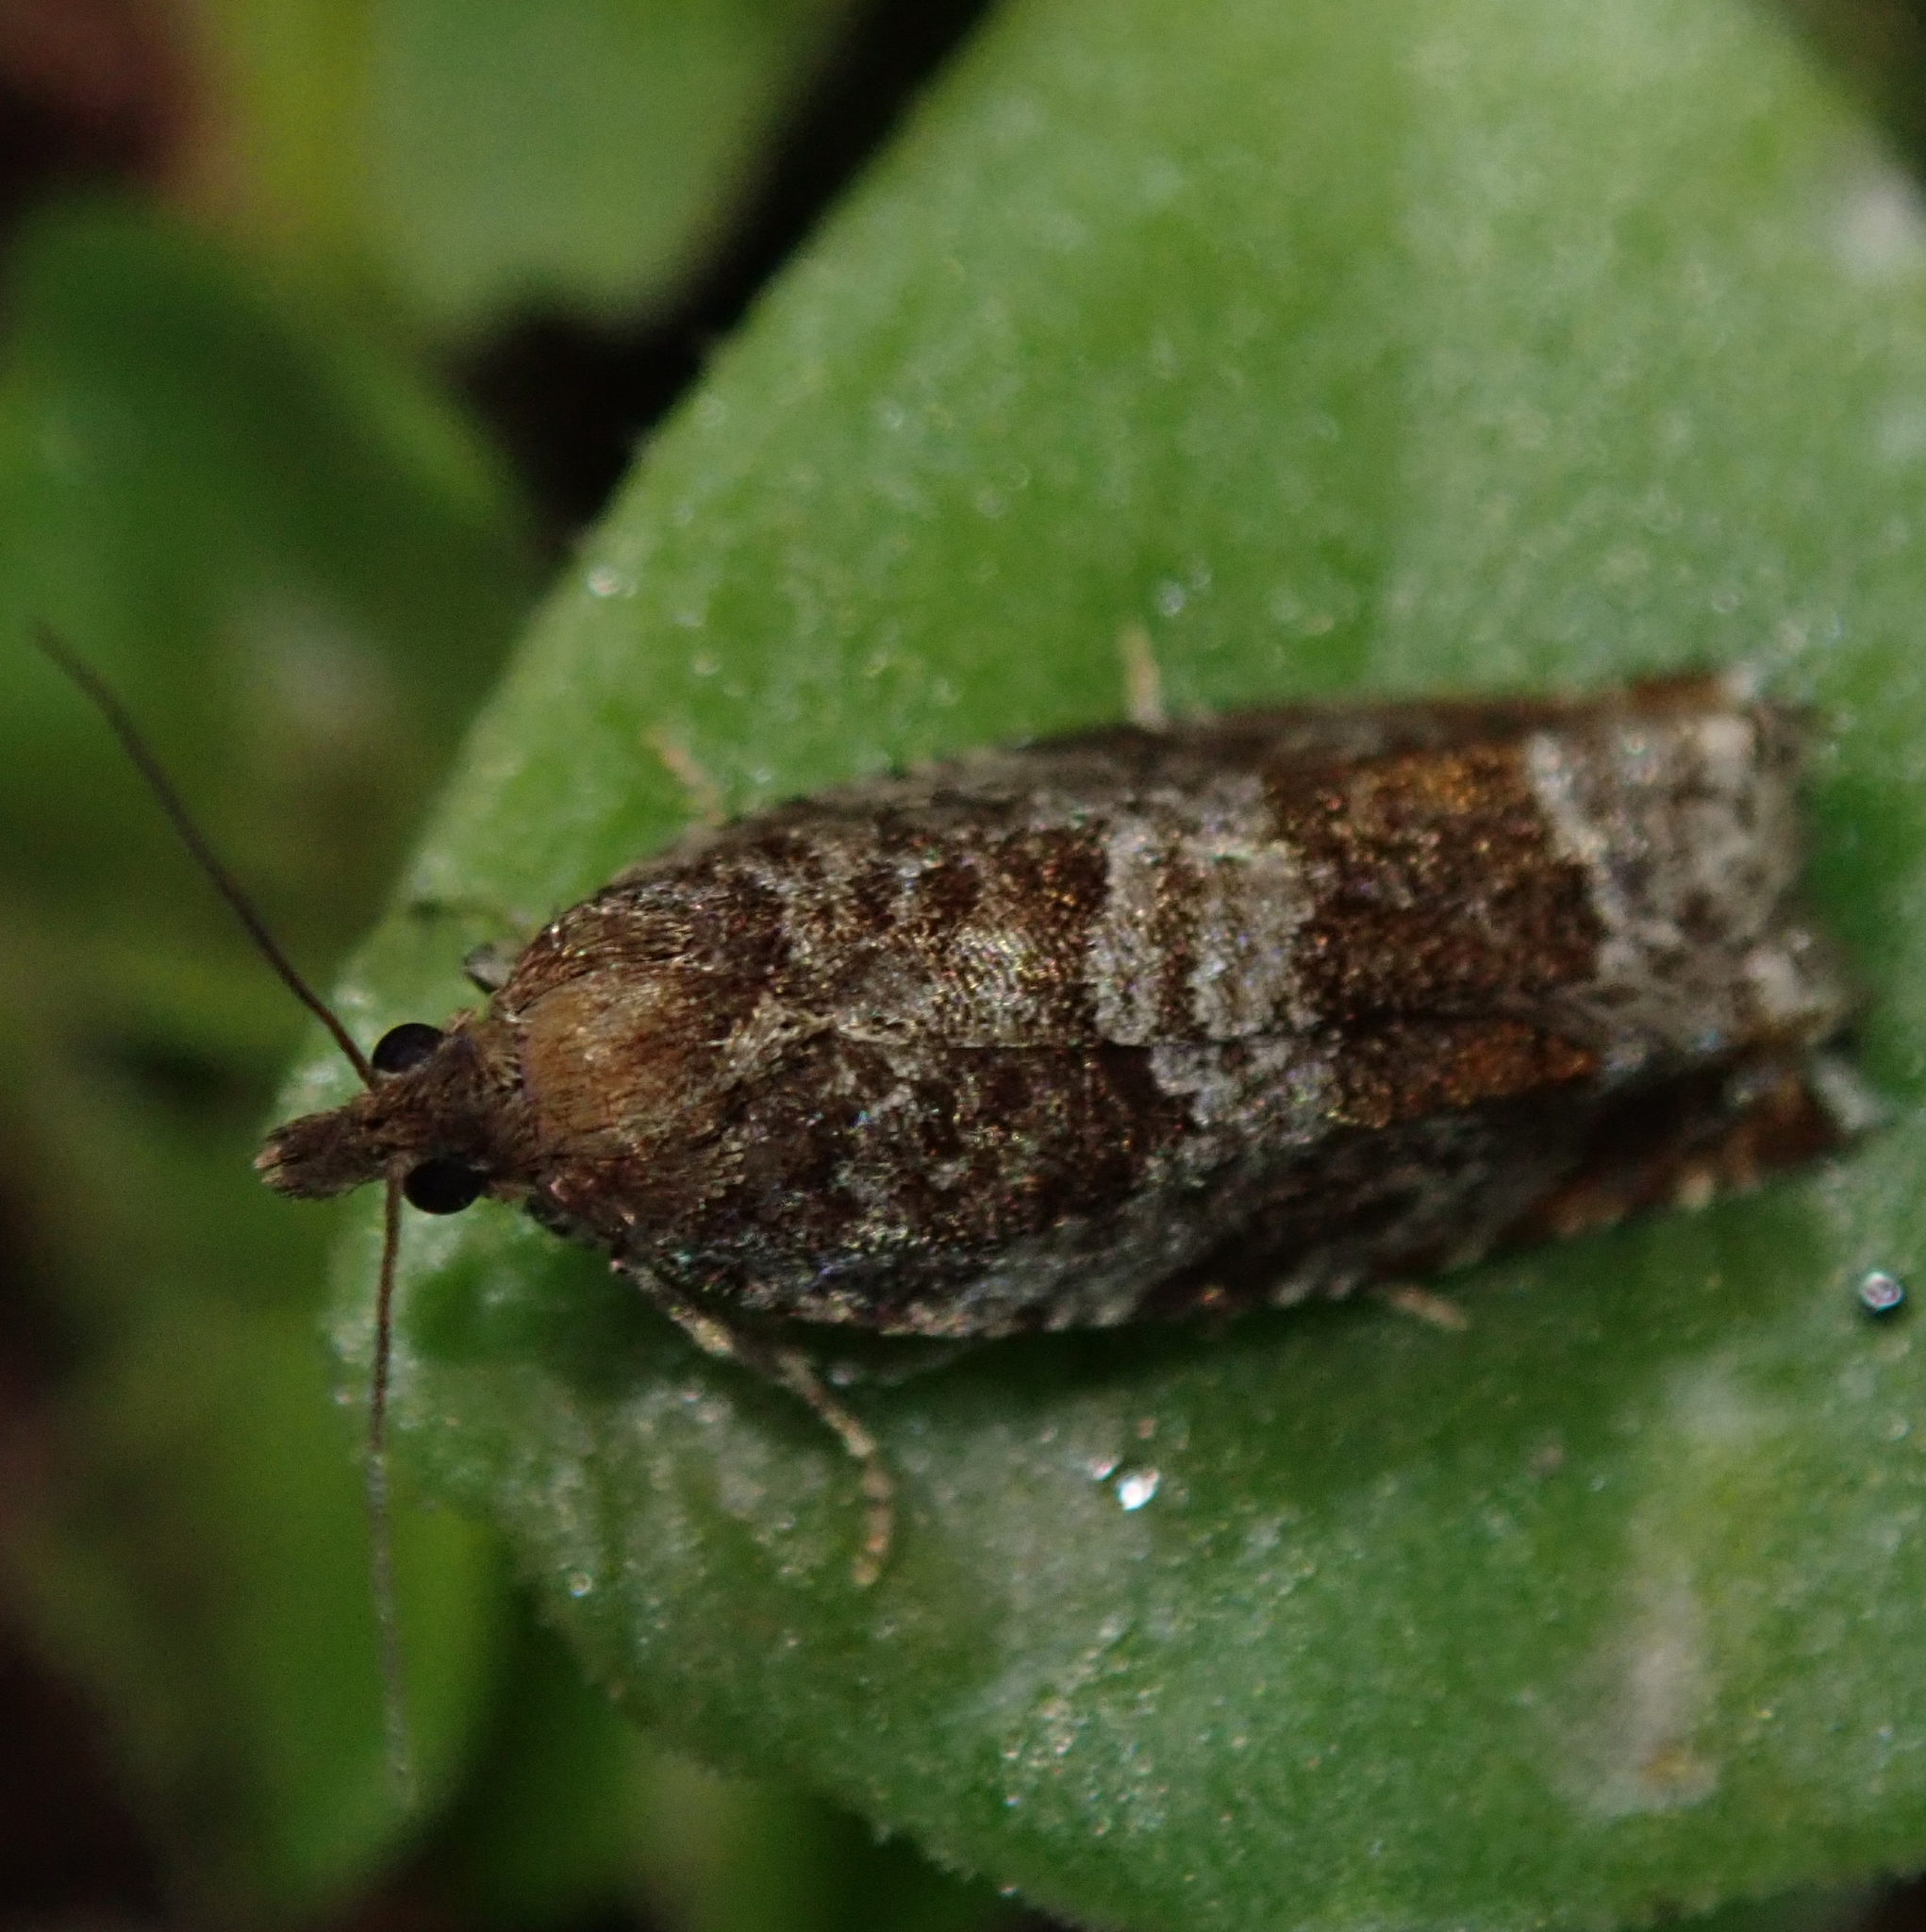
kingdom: Animalia
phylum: Arthropoda
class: Insecta
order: Lepidoptera
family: Tortricidae
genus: Ancylis
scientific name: Ancylis achatana
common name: Triangle-marked roller
